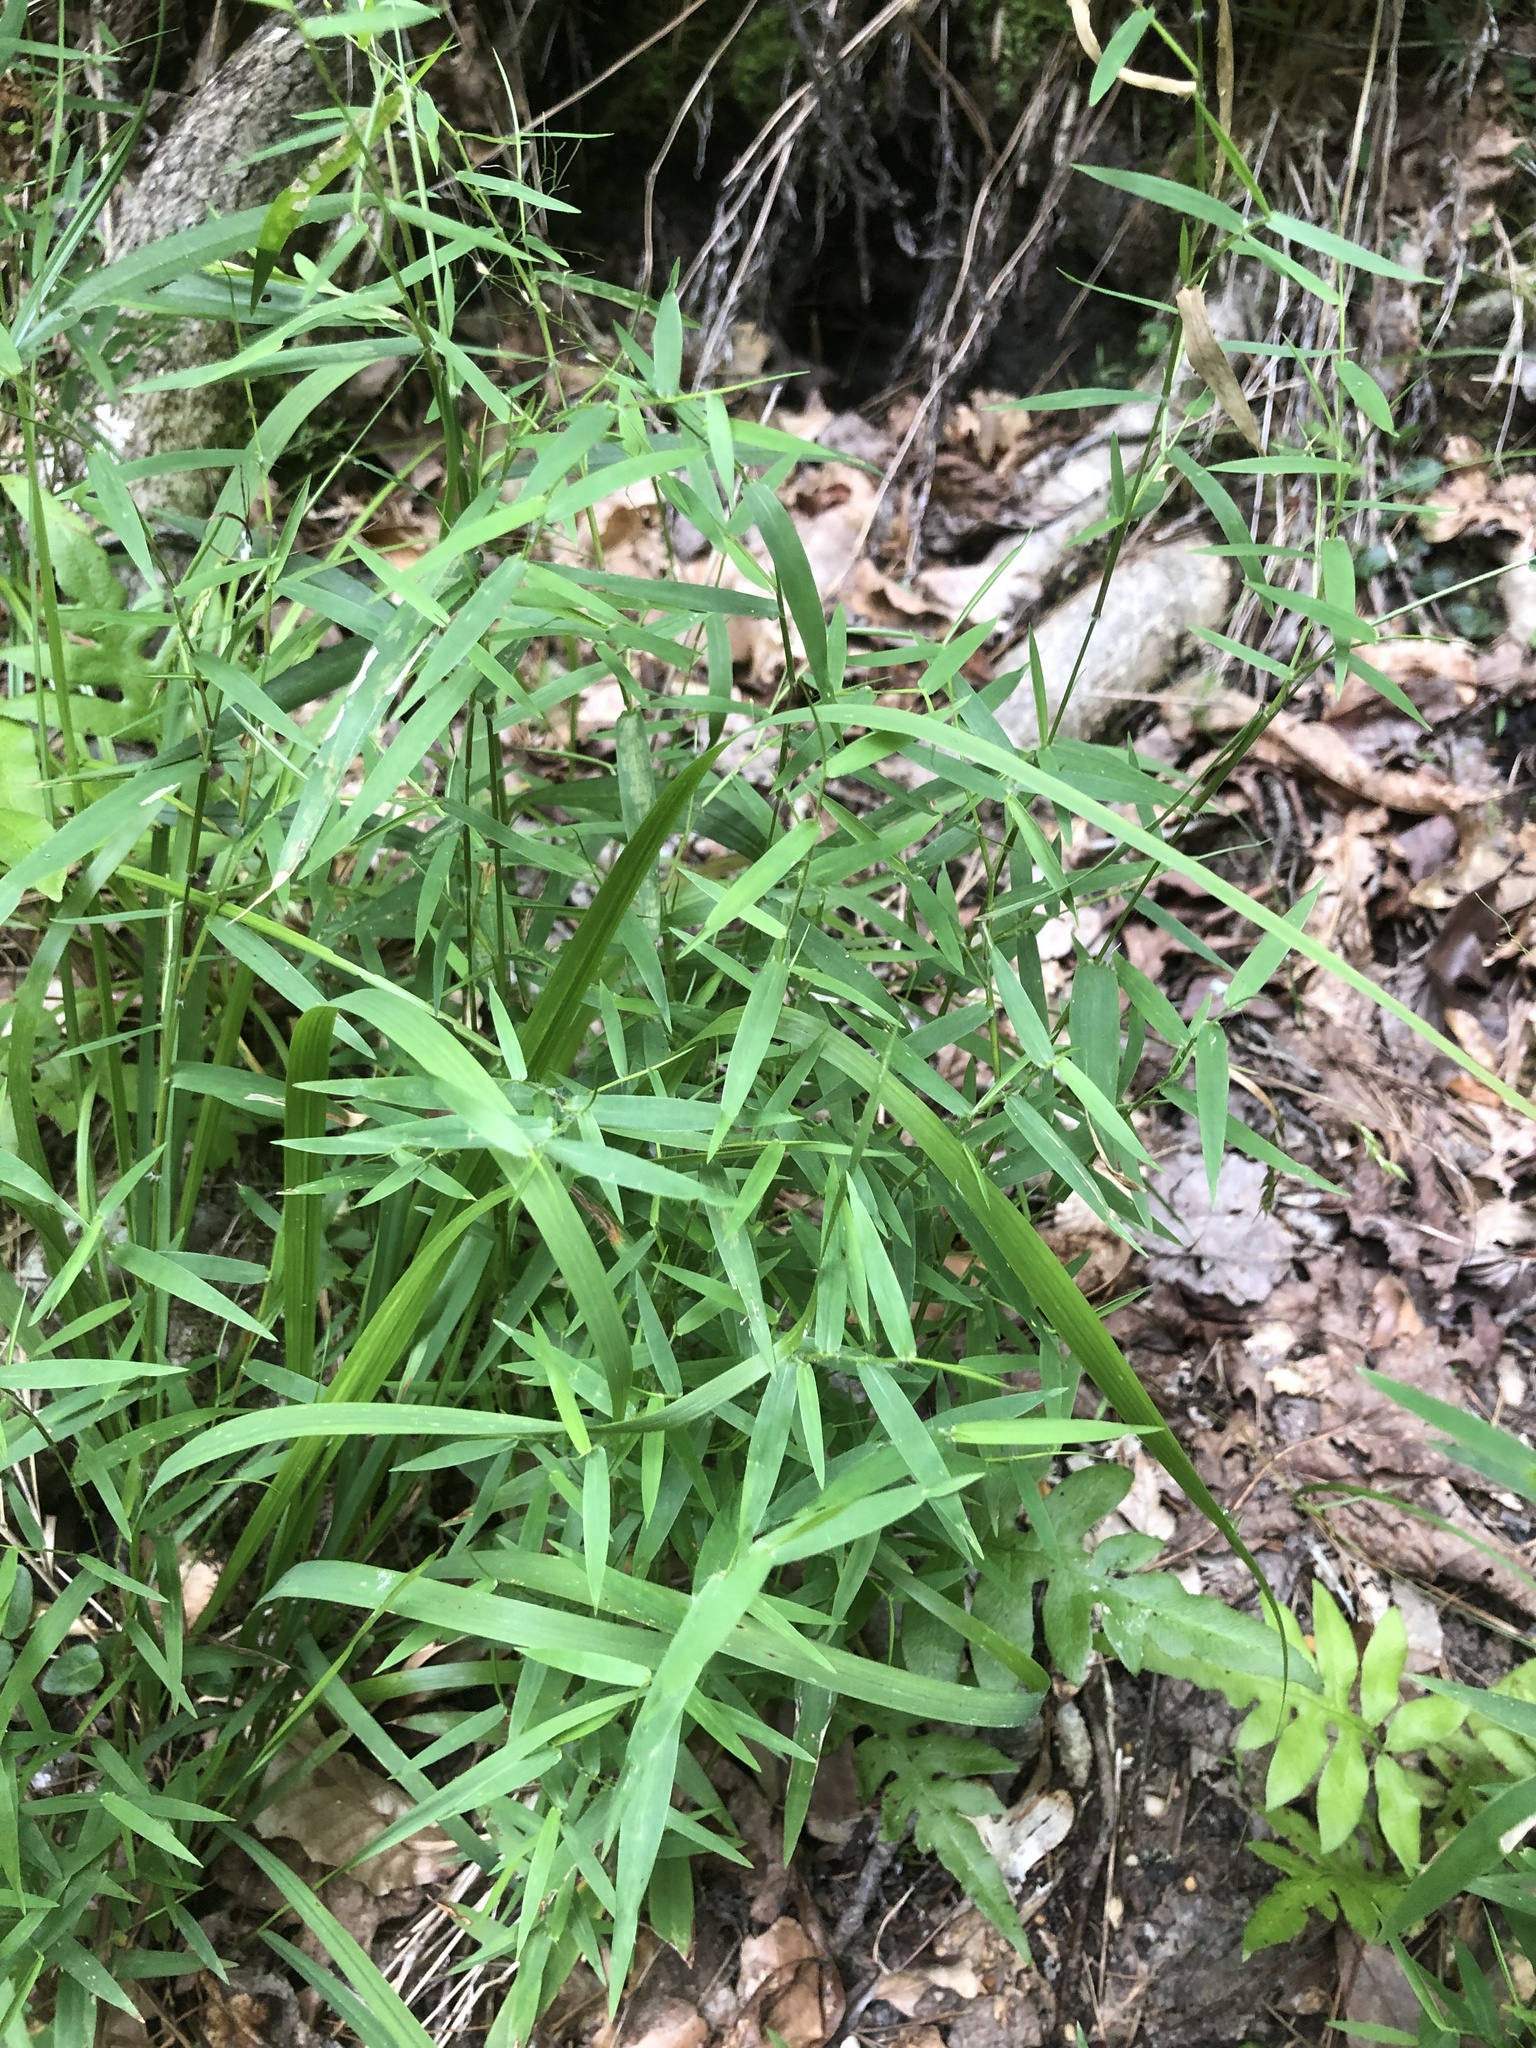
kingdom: Plantae
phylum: Tracheophyta
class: Liliopsida
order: Poales
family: Poaceae
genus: Dichanthelium
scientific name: Dichanthelium microcarpon
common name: Small-fruited witchgrass
